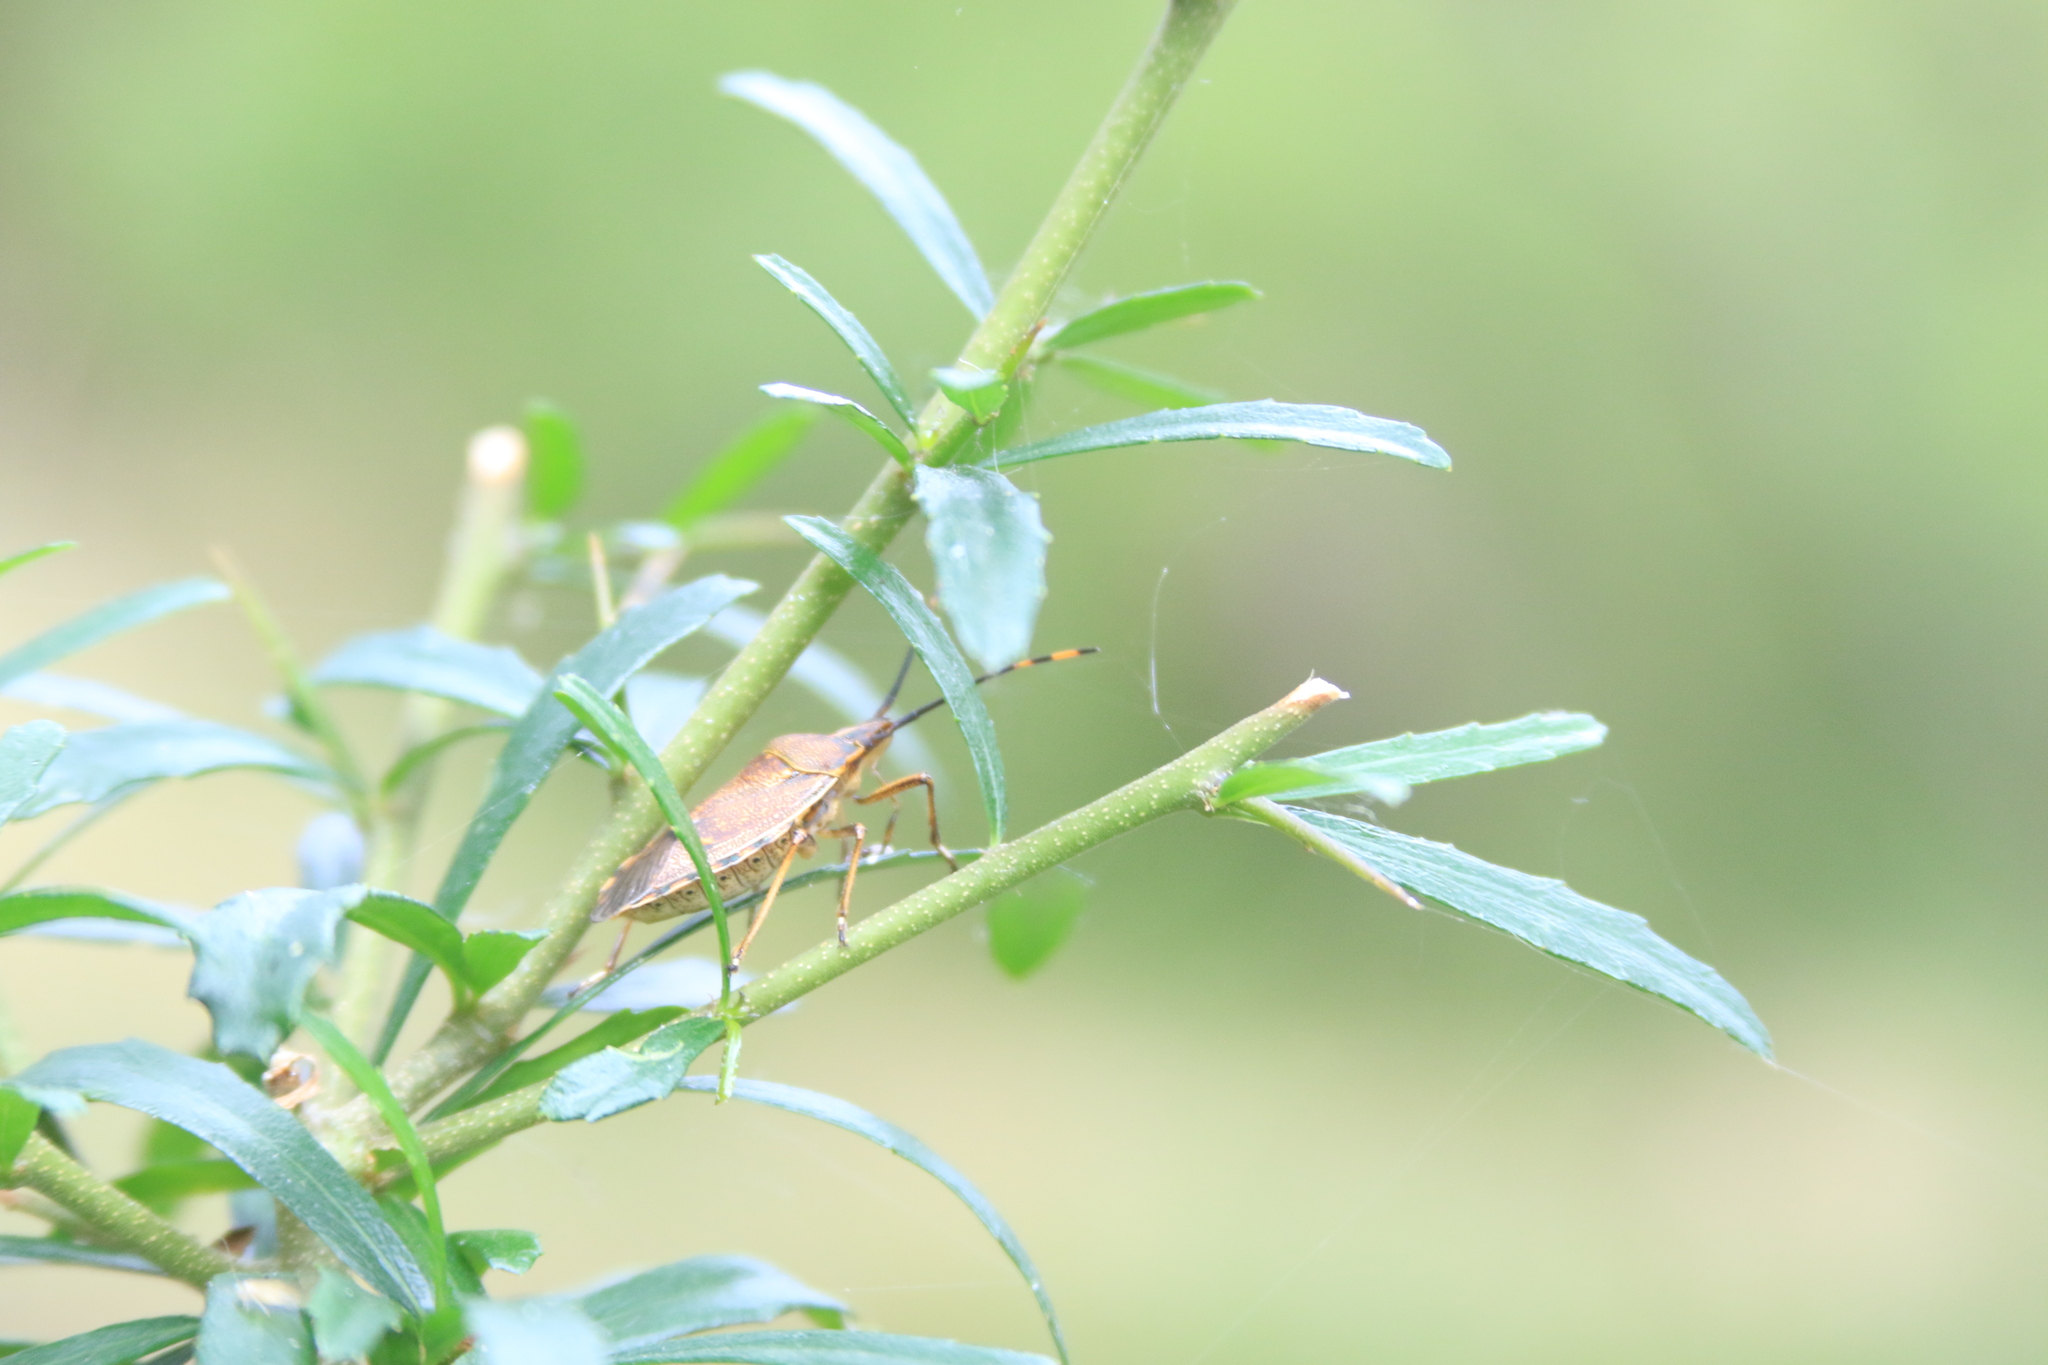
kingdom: Animalia
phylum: Arthropoda
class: Insecta
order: Hemiptera
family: Pentatomidae
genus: Omyta
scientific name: Omyta centrolineata
